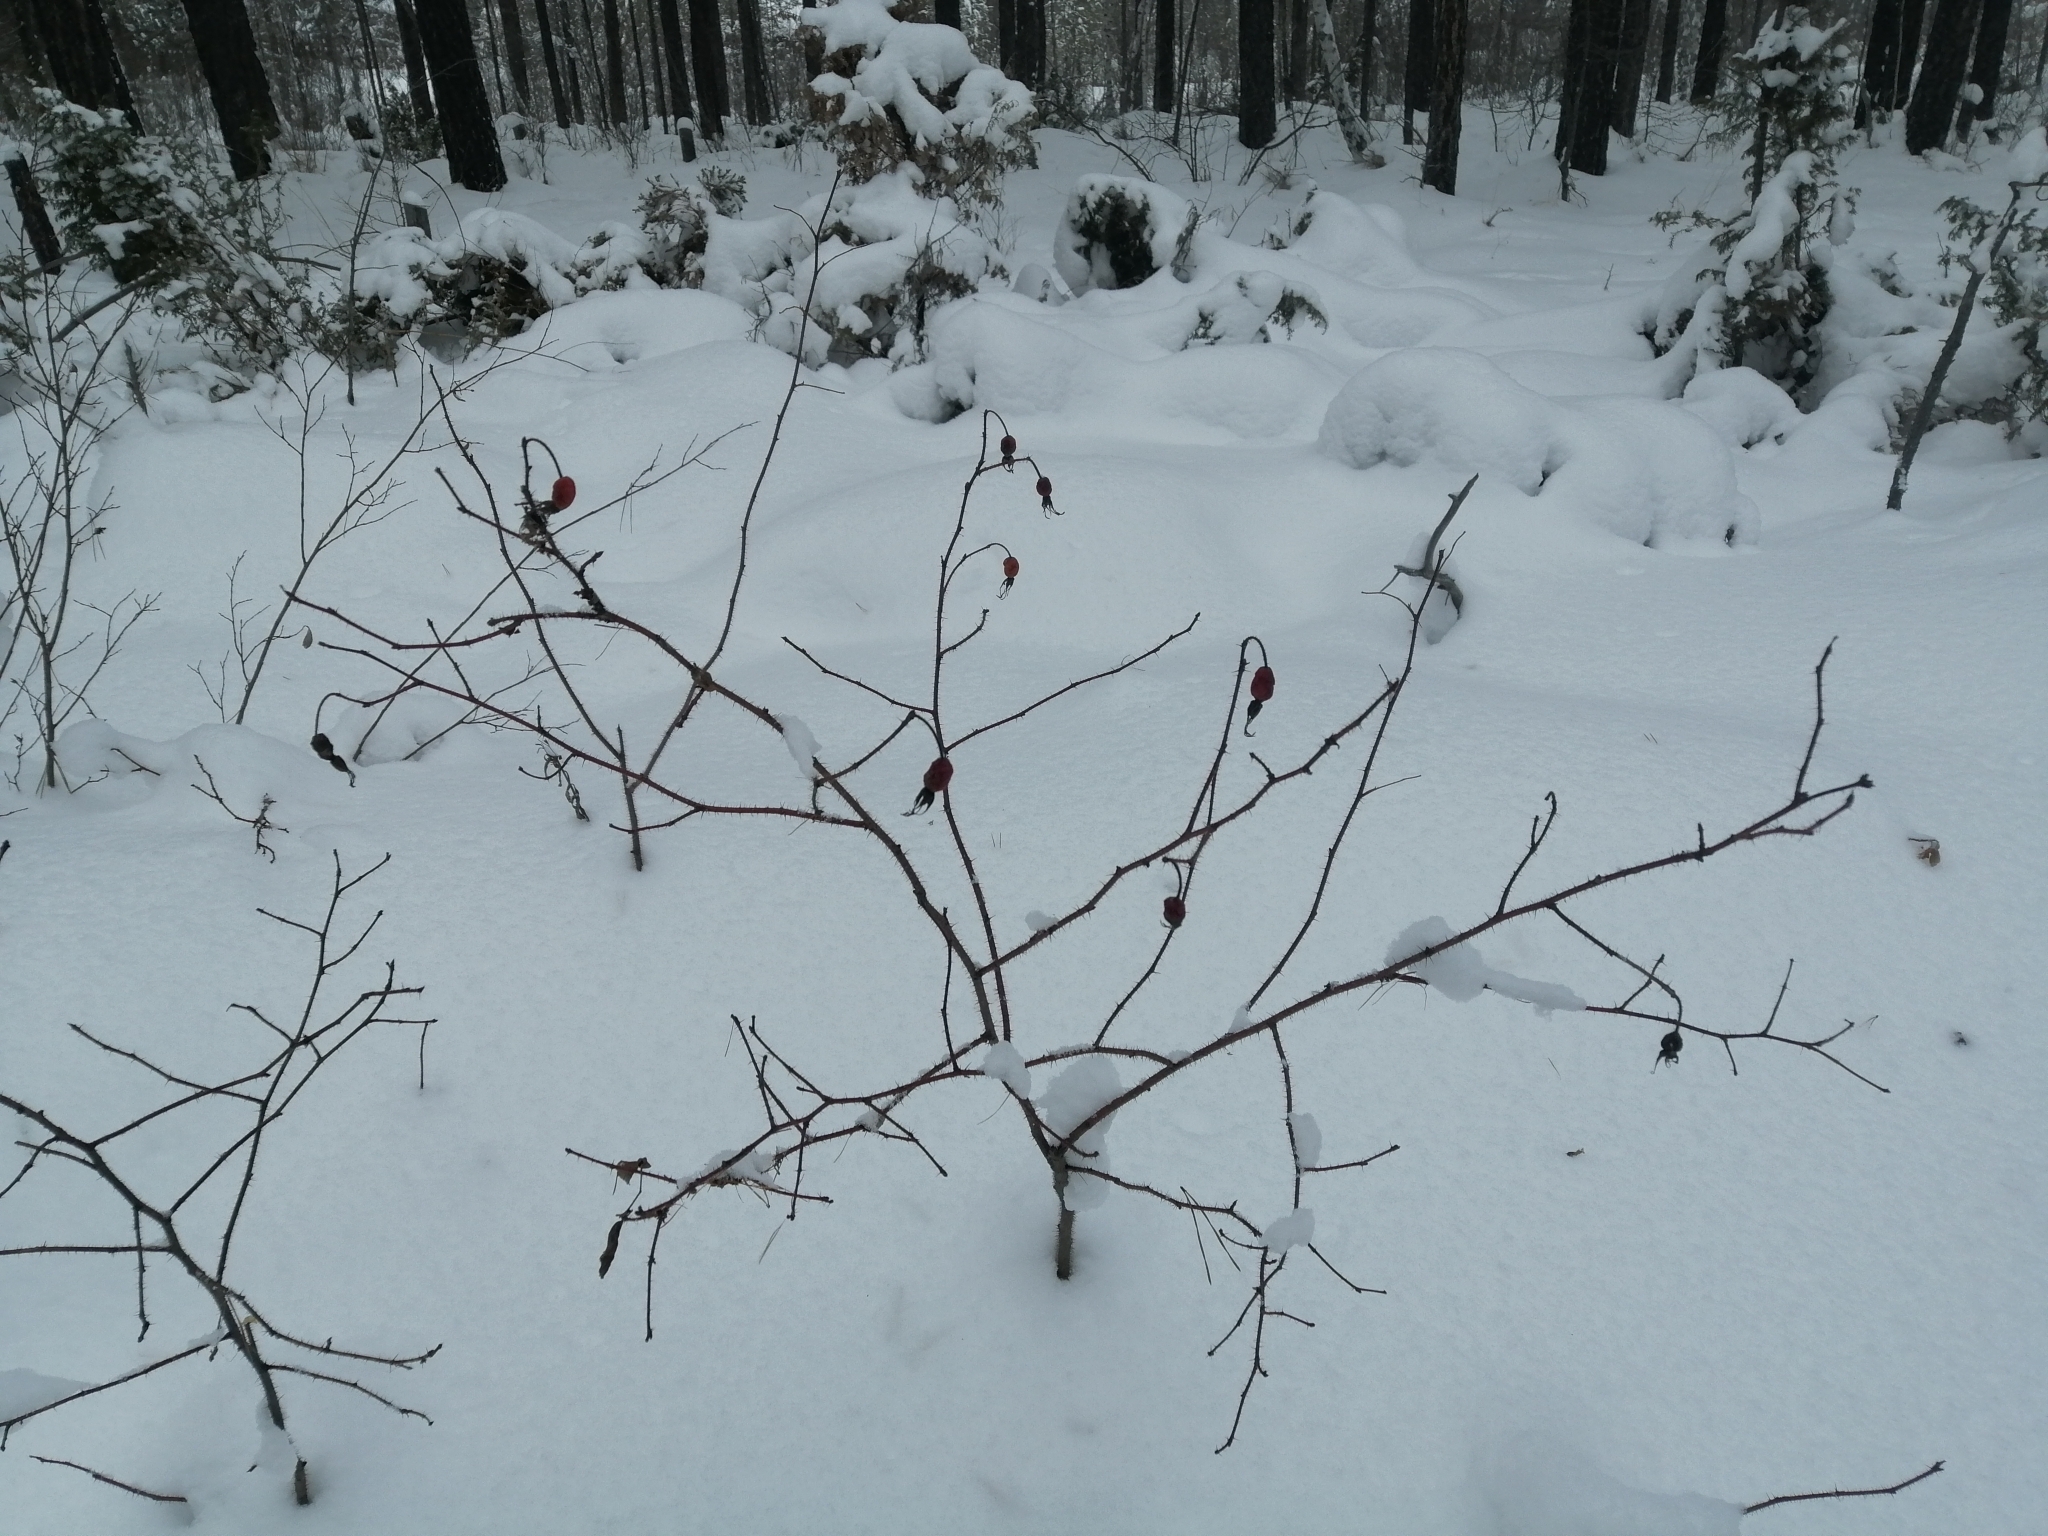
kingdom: Plantae
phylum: Tracheophyta
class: Magnoliopsida
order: Rosales
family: Rosaceae
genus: Rosa
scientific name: Rosa acicularis
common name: Prickly rose
